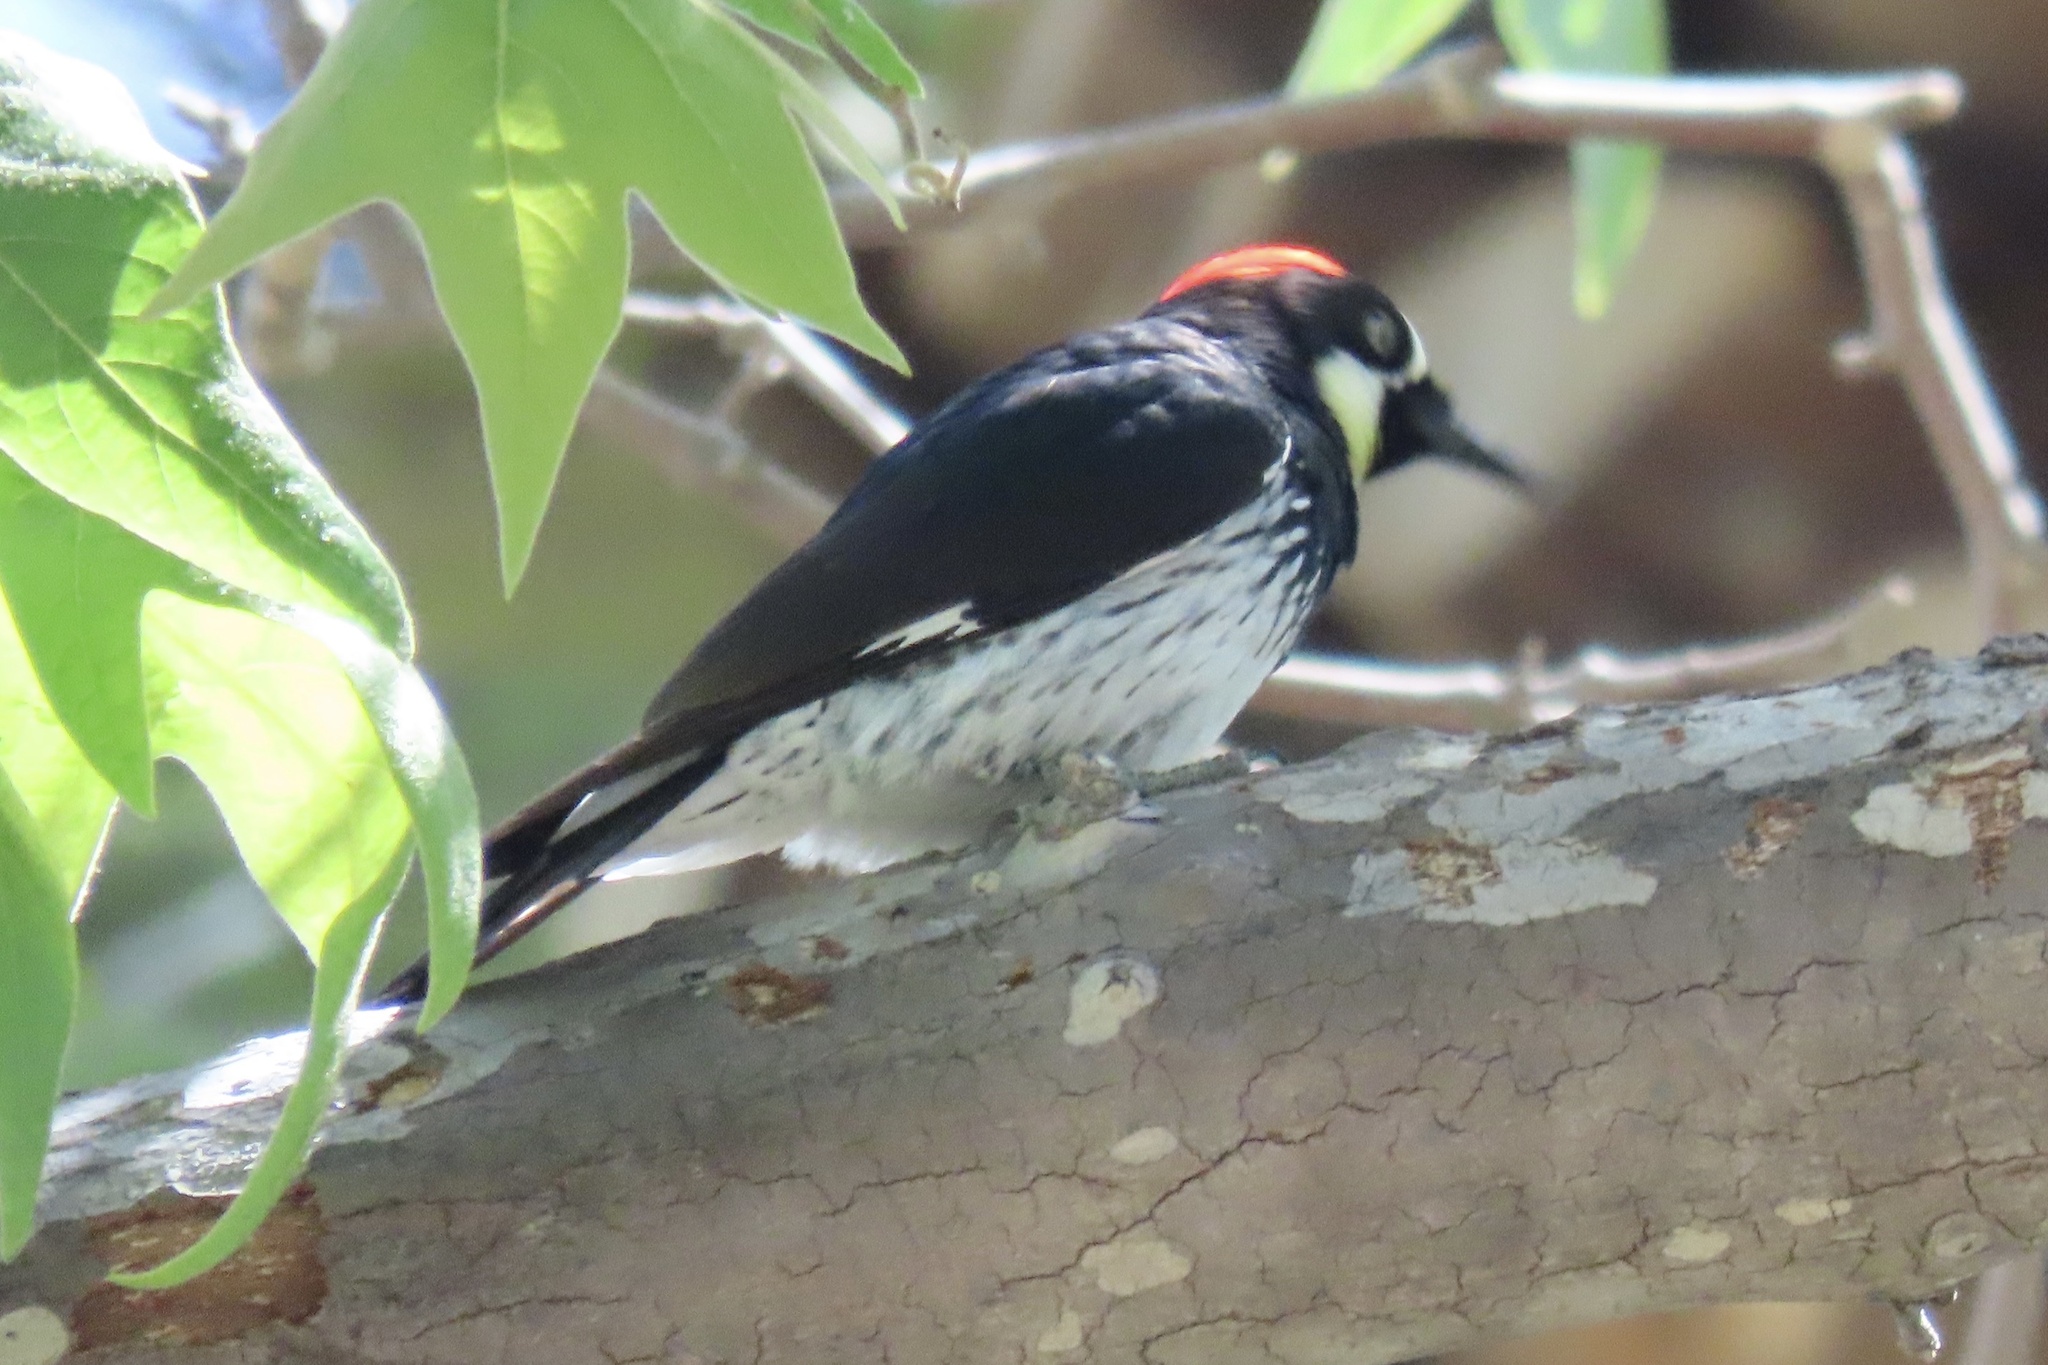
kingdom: Animalia
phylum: Chordata
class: Aves
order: Piciformes
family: Picidae
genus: Melanerpes
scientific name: Melanerpes formicivorus
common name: Acorn woodpecker
